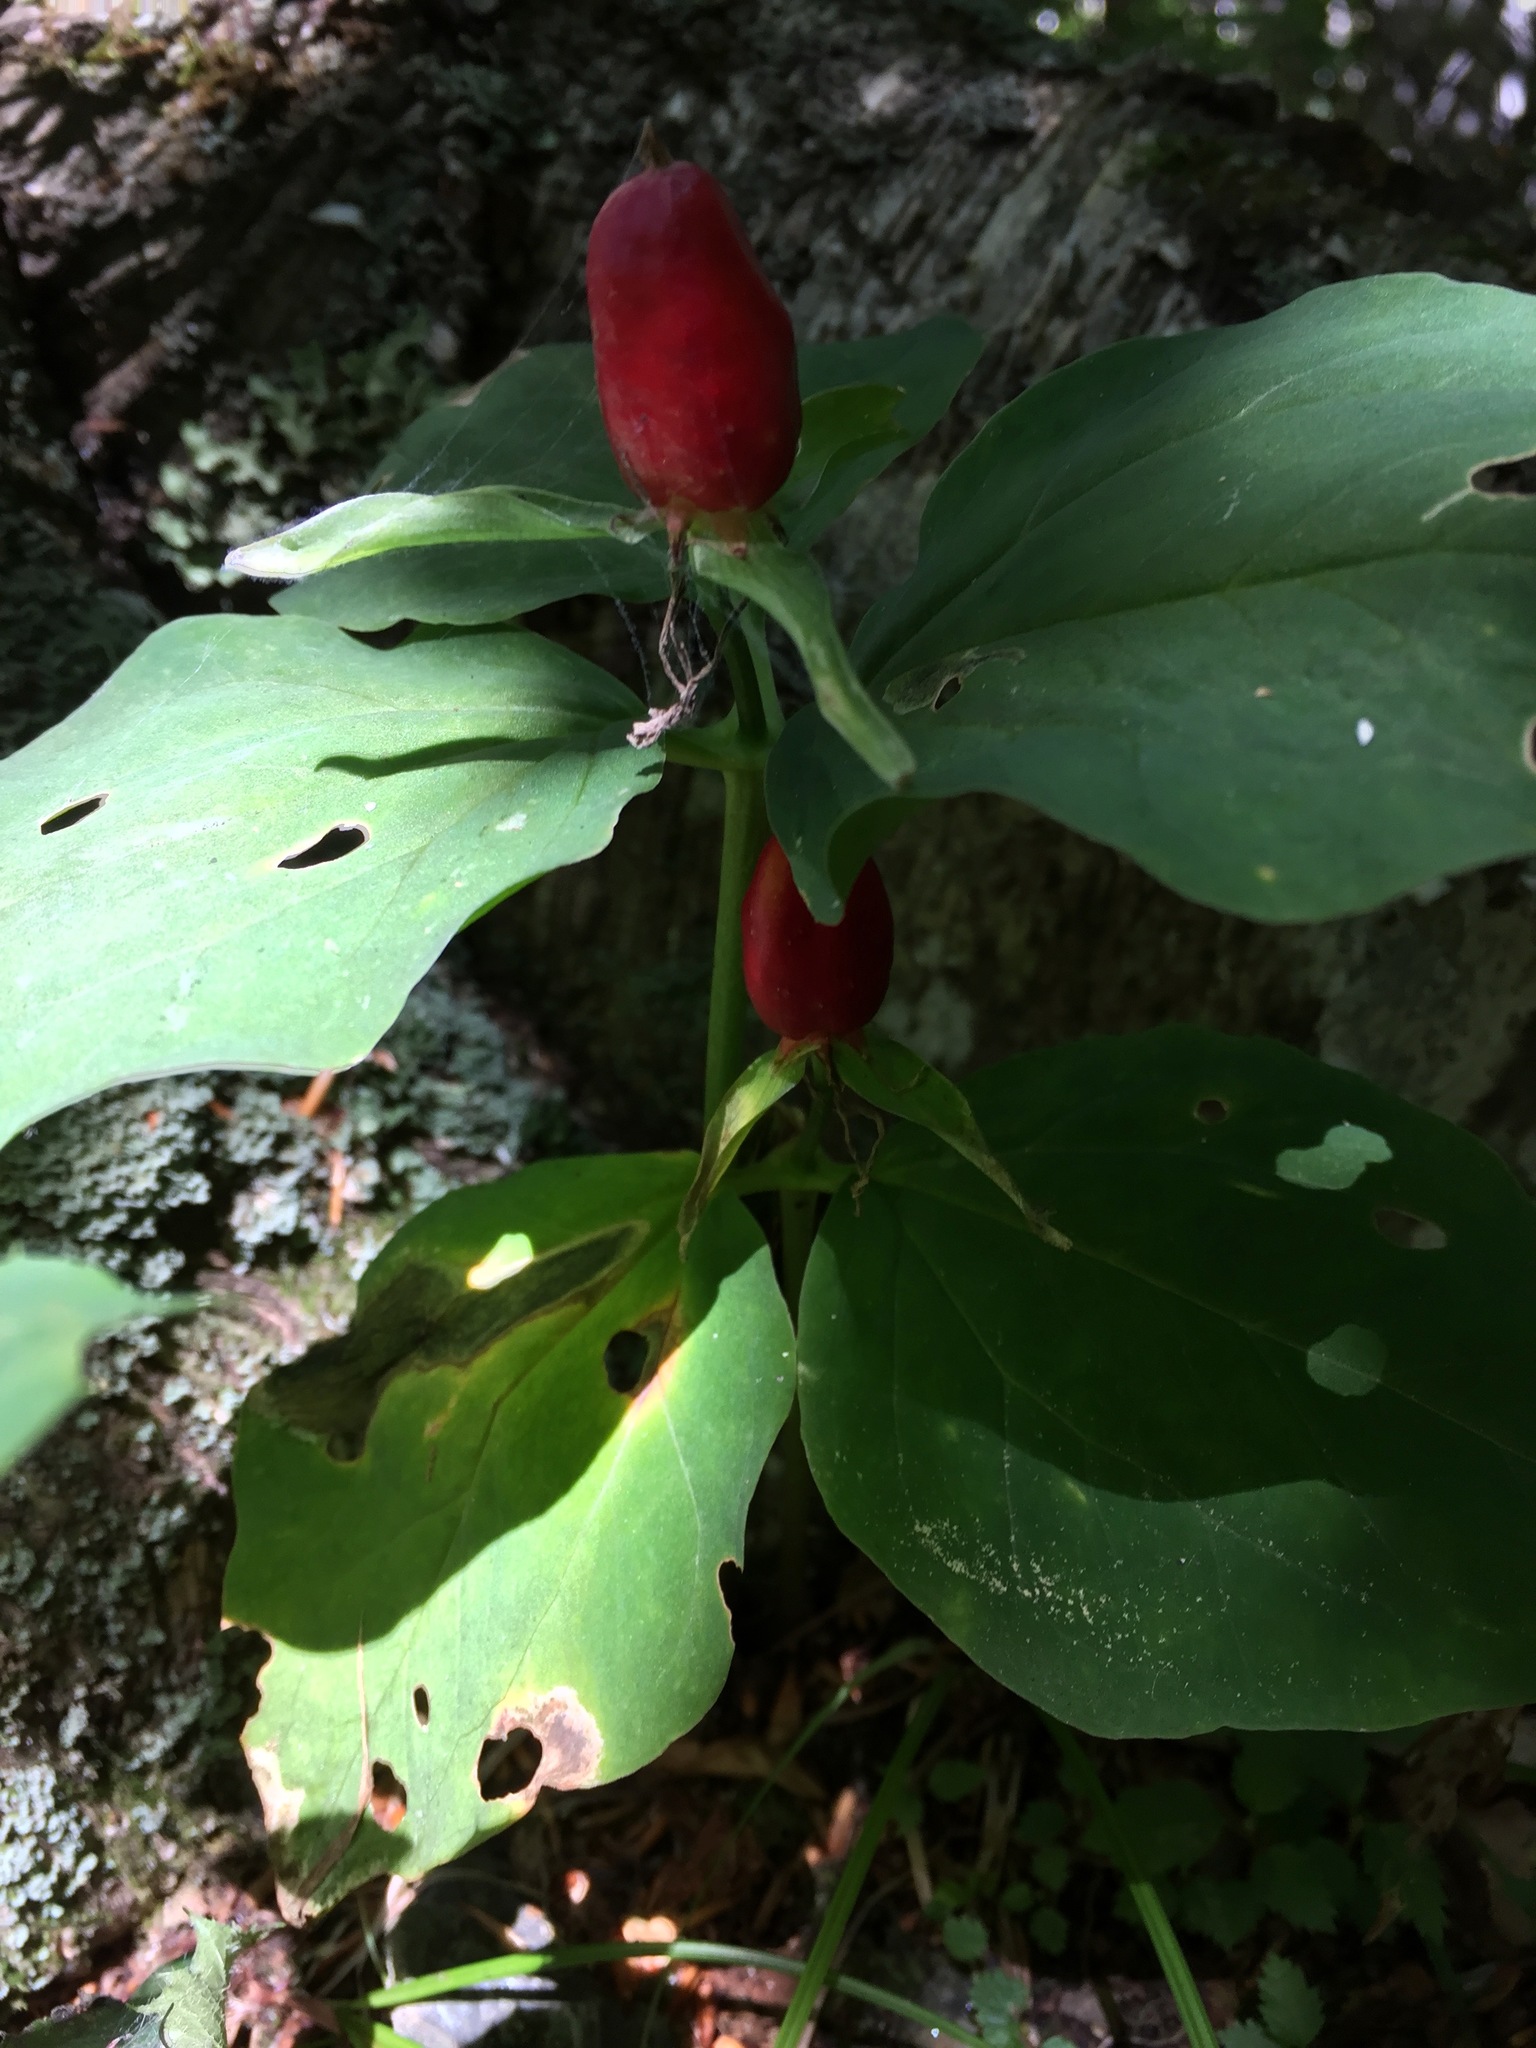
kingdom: Plantae
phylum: Tracheophyta
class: Liliopsida
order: Liliales
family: Melanthiaceae
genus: Trillium
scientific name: Trillium undulatum
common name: Paint trillium
